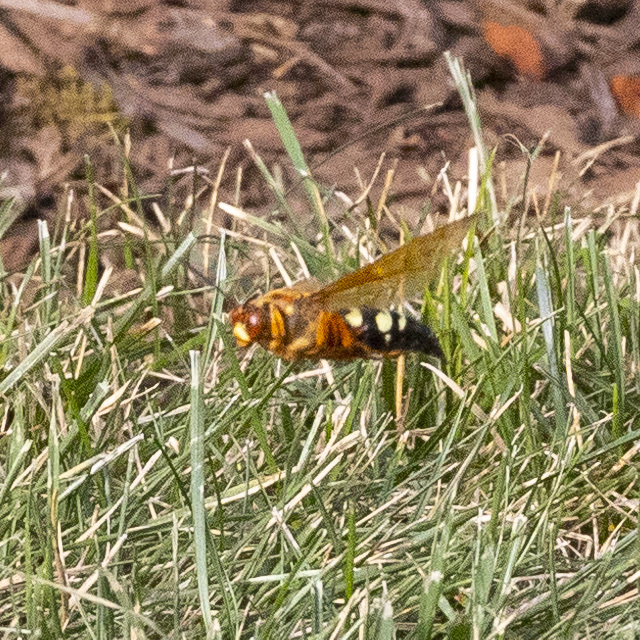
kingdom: Animalia
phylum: Arthropoda
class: Insecta
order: Hymenoptera
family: Crabronidae
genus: Sphecius
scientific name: Sphecius speciosus
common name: Cicada killer
